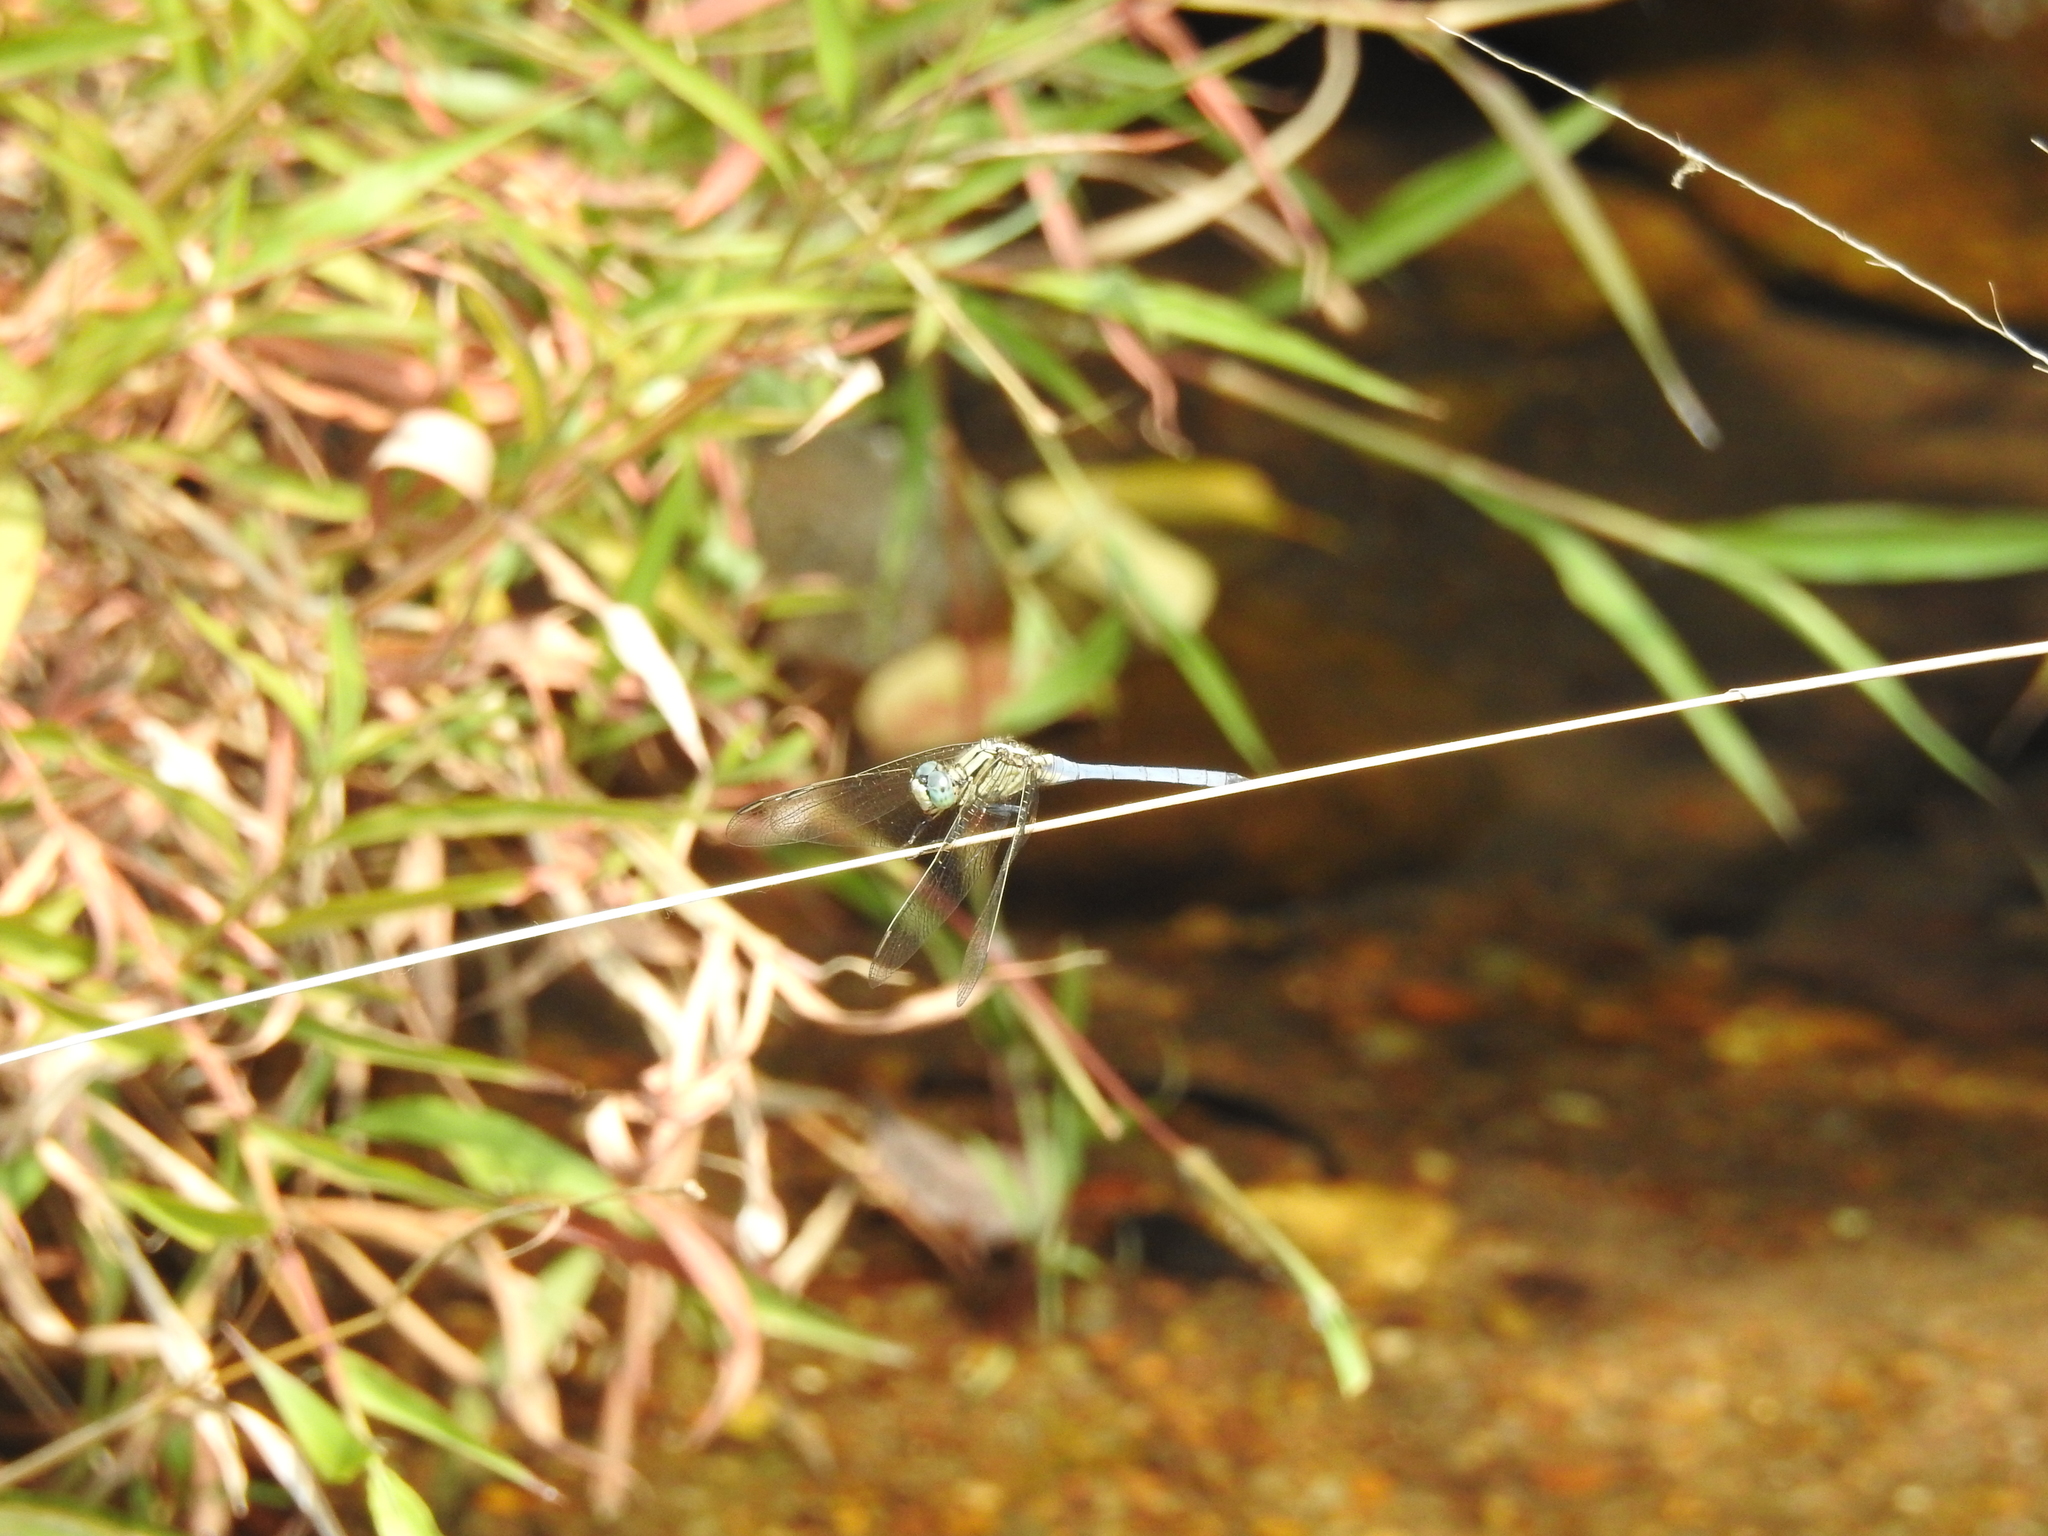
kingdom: Animalia
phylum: Arthropoda
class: Insecta
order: Odonata
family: Libellulidae
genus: Orthetrum
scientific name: Orthetrum luzonicum
